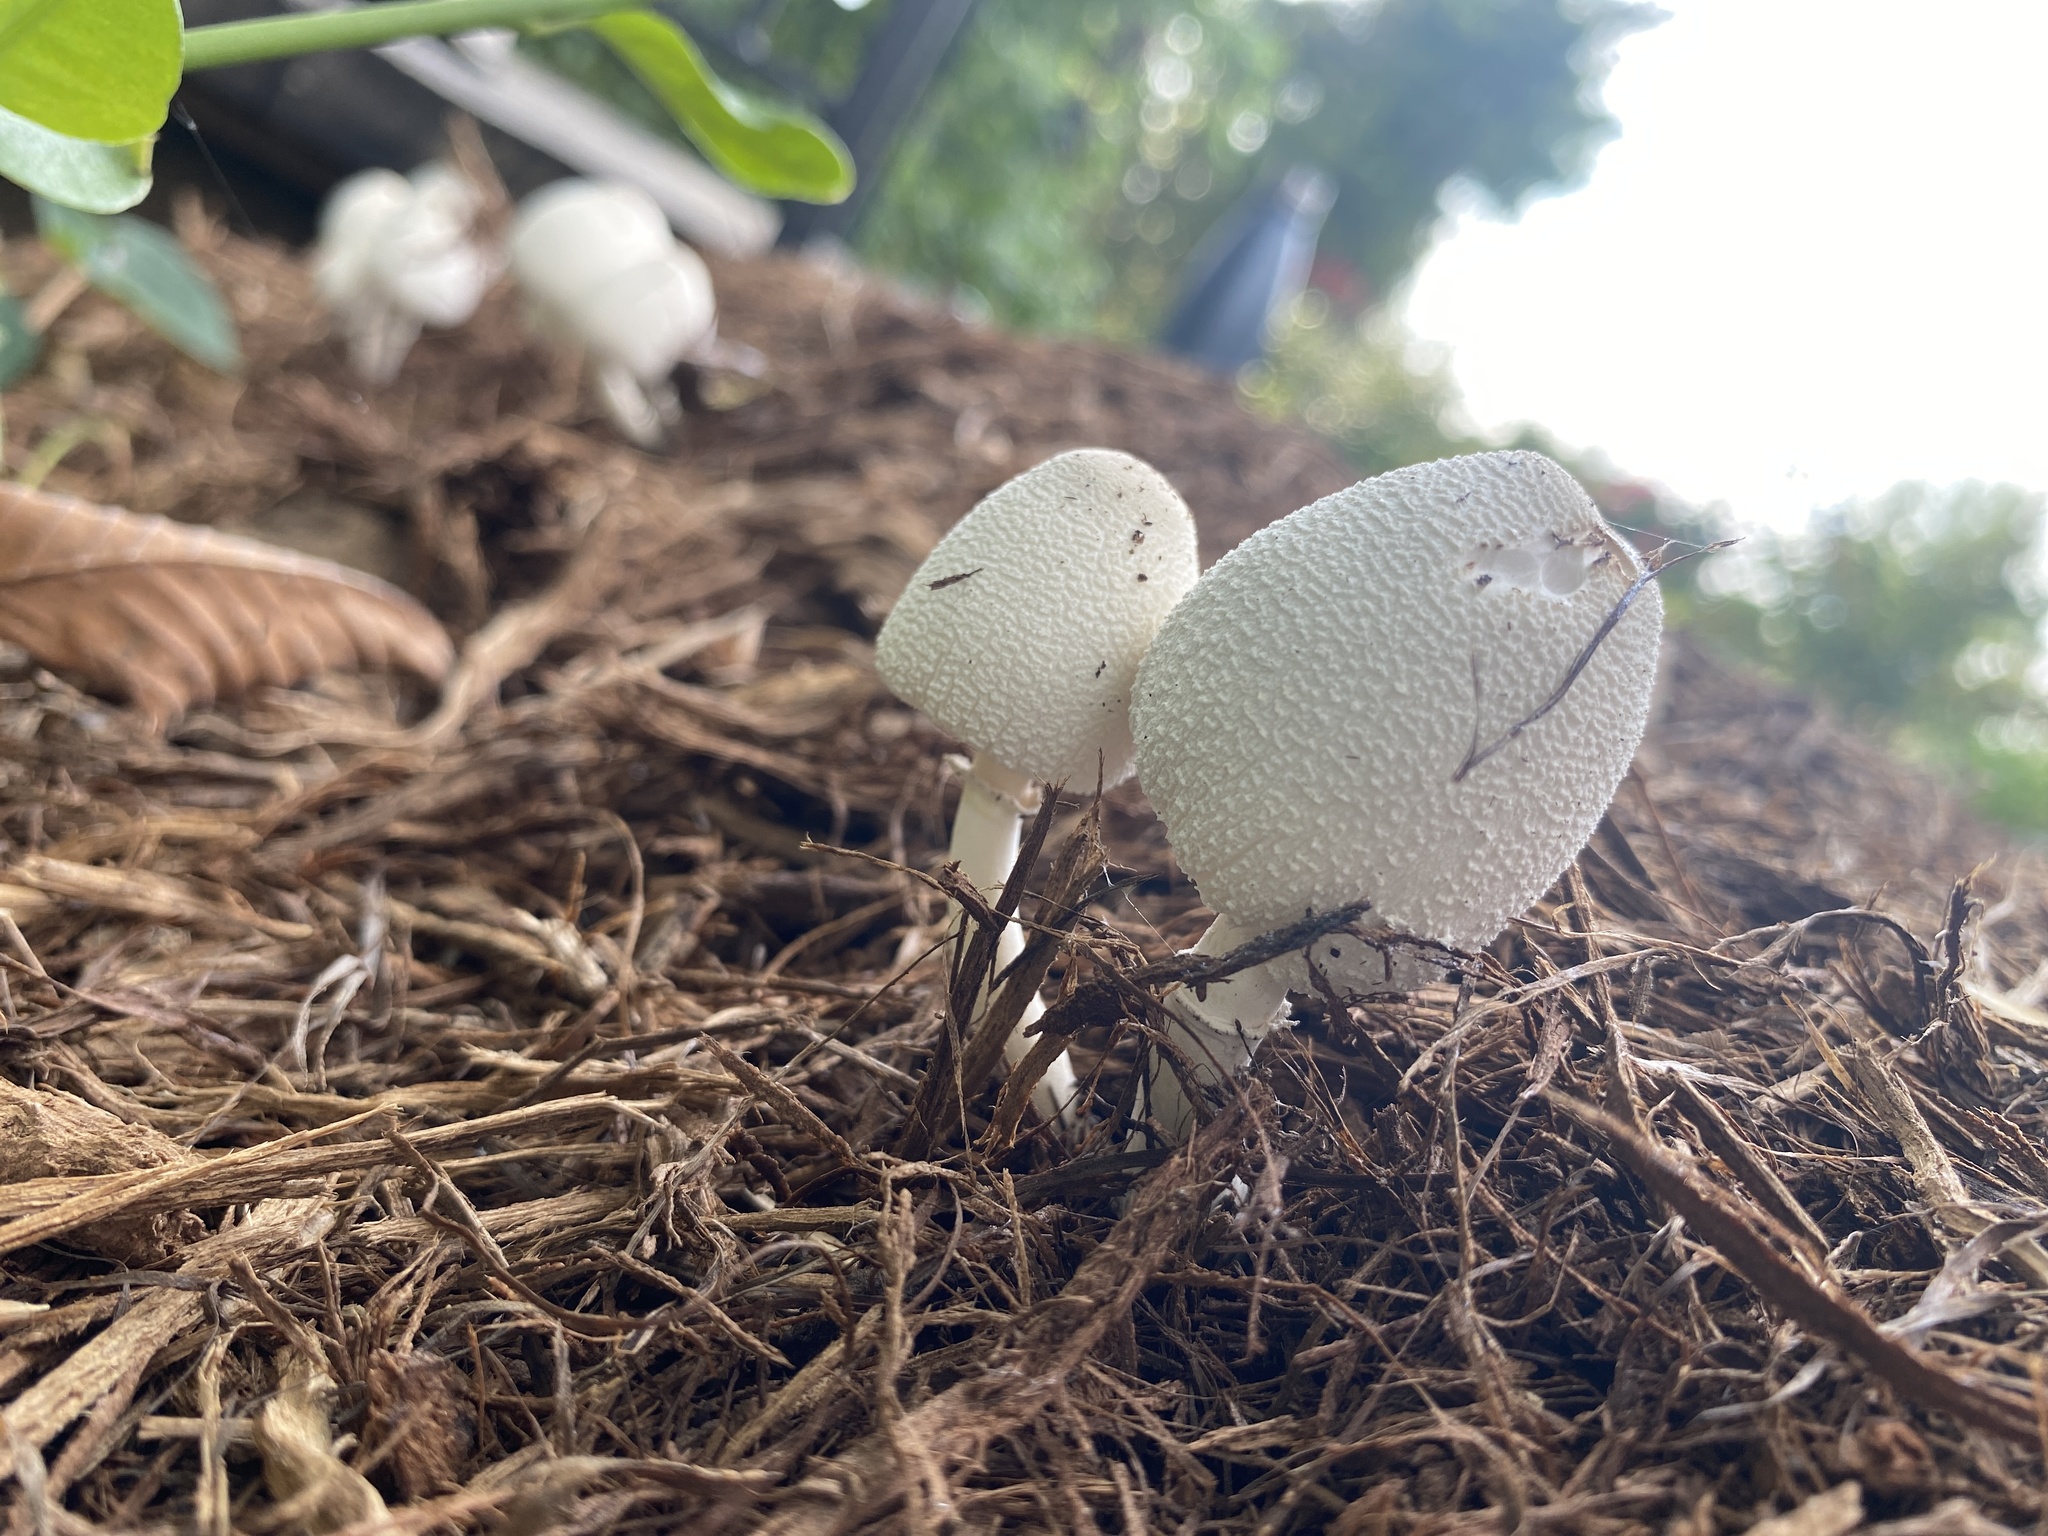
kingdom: Fungi
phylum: Basidiomycota
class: Agaricomycetes
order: Agaricales
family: Agaricaceae
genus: Leucoagaricus
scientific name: Leucoagaricus americanus
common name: Reddening lepiota
